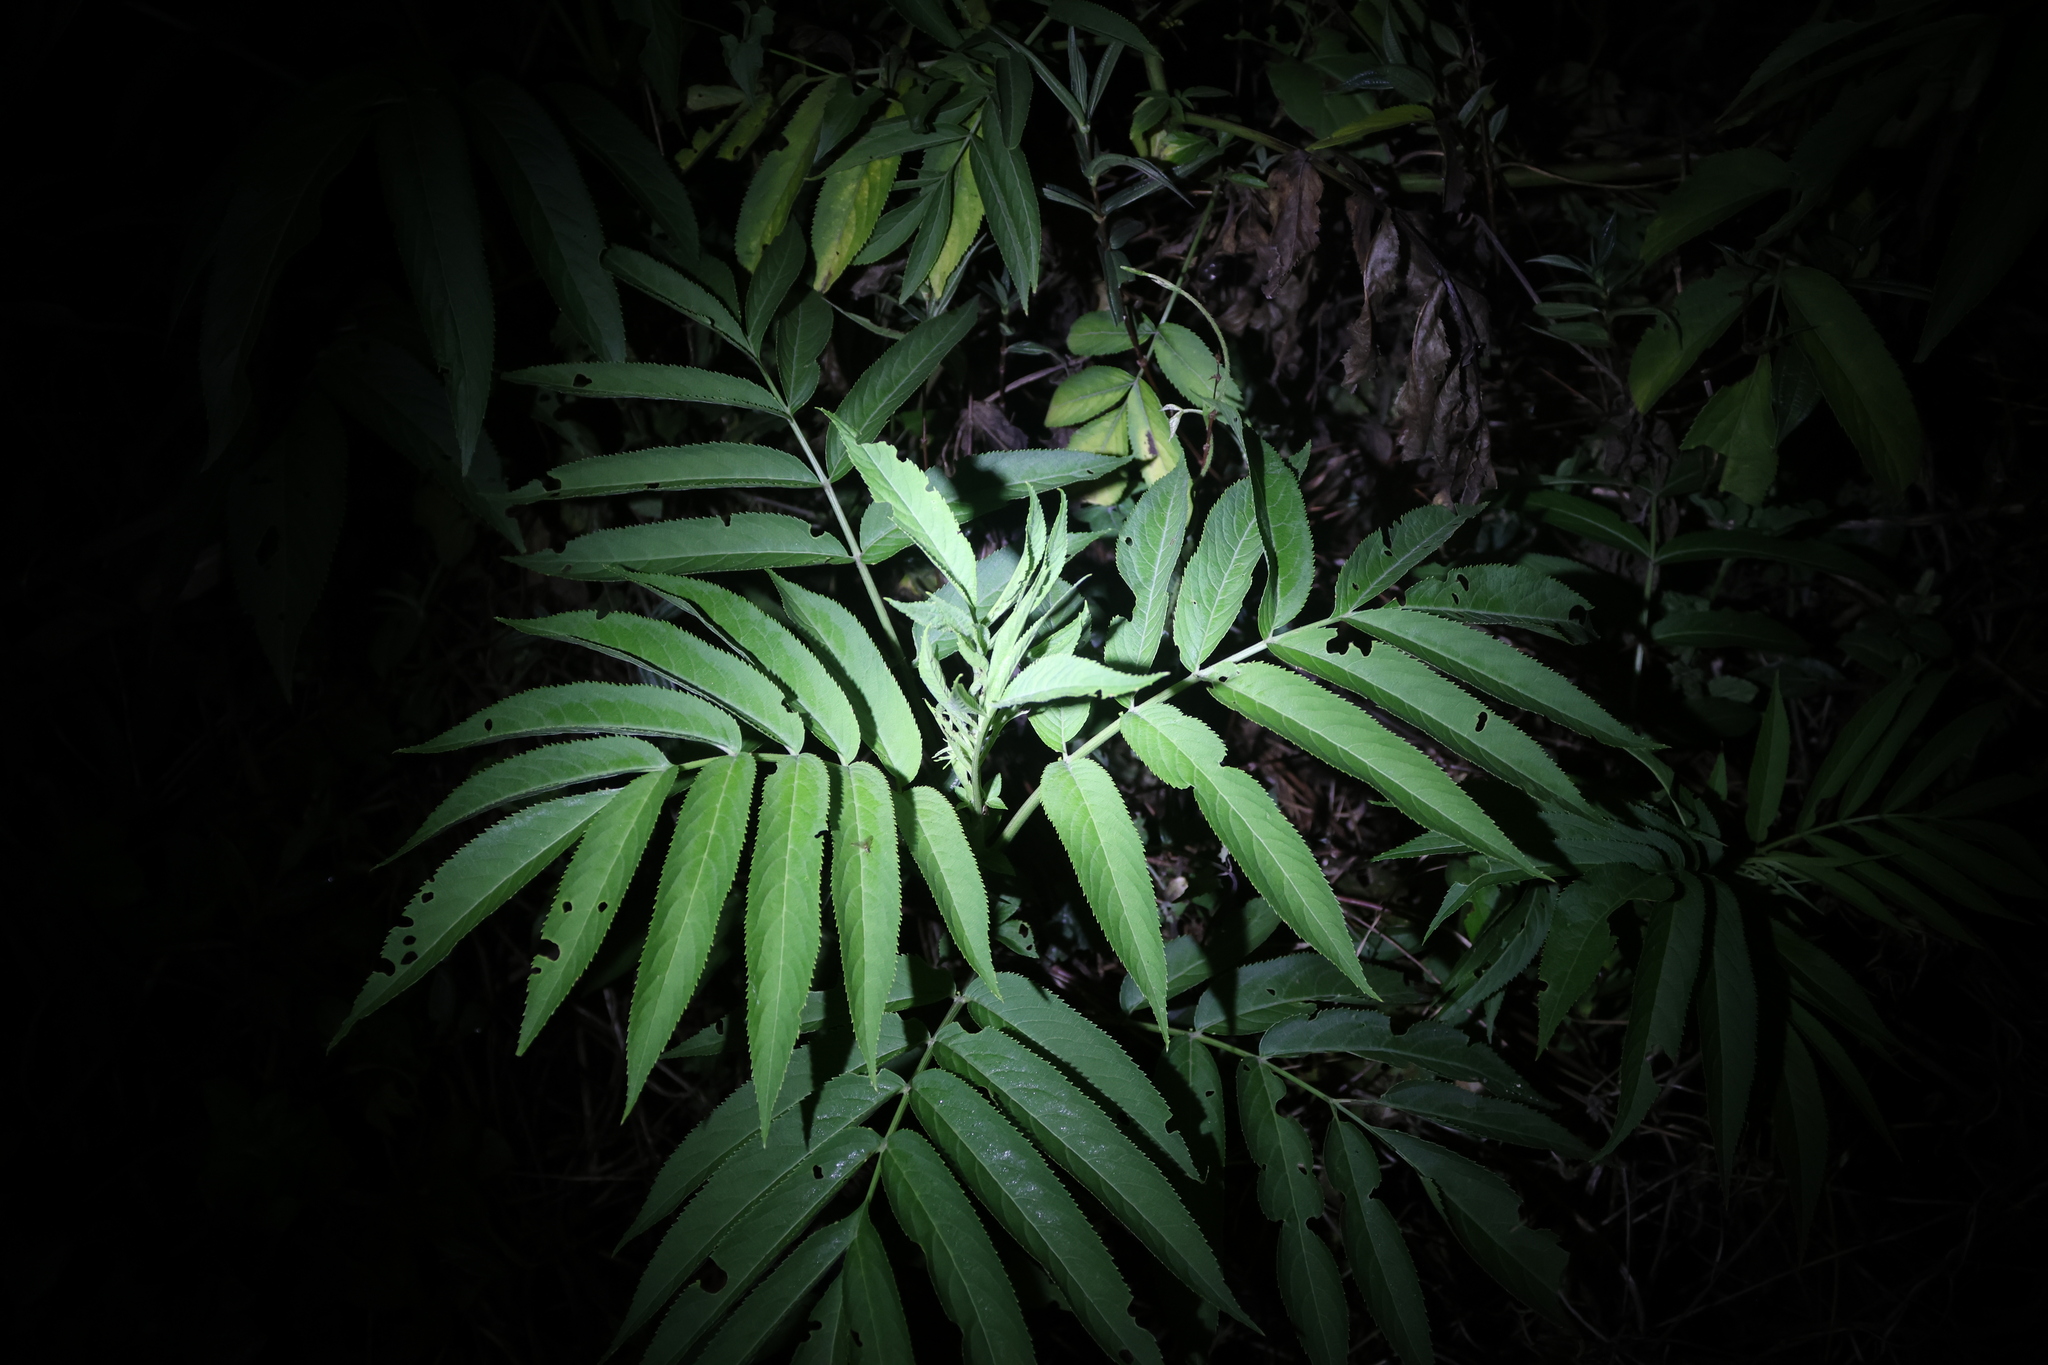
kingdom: Plantae
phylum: Tracheophyta
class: Magnoliopsida
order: Dipsacales
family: Viburnaceae
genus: Sambucus
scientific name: Sambucus javanica
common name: Chinese elder
